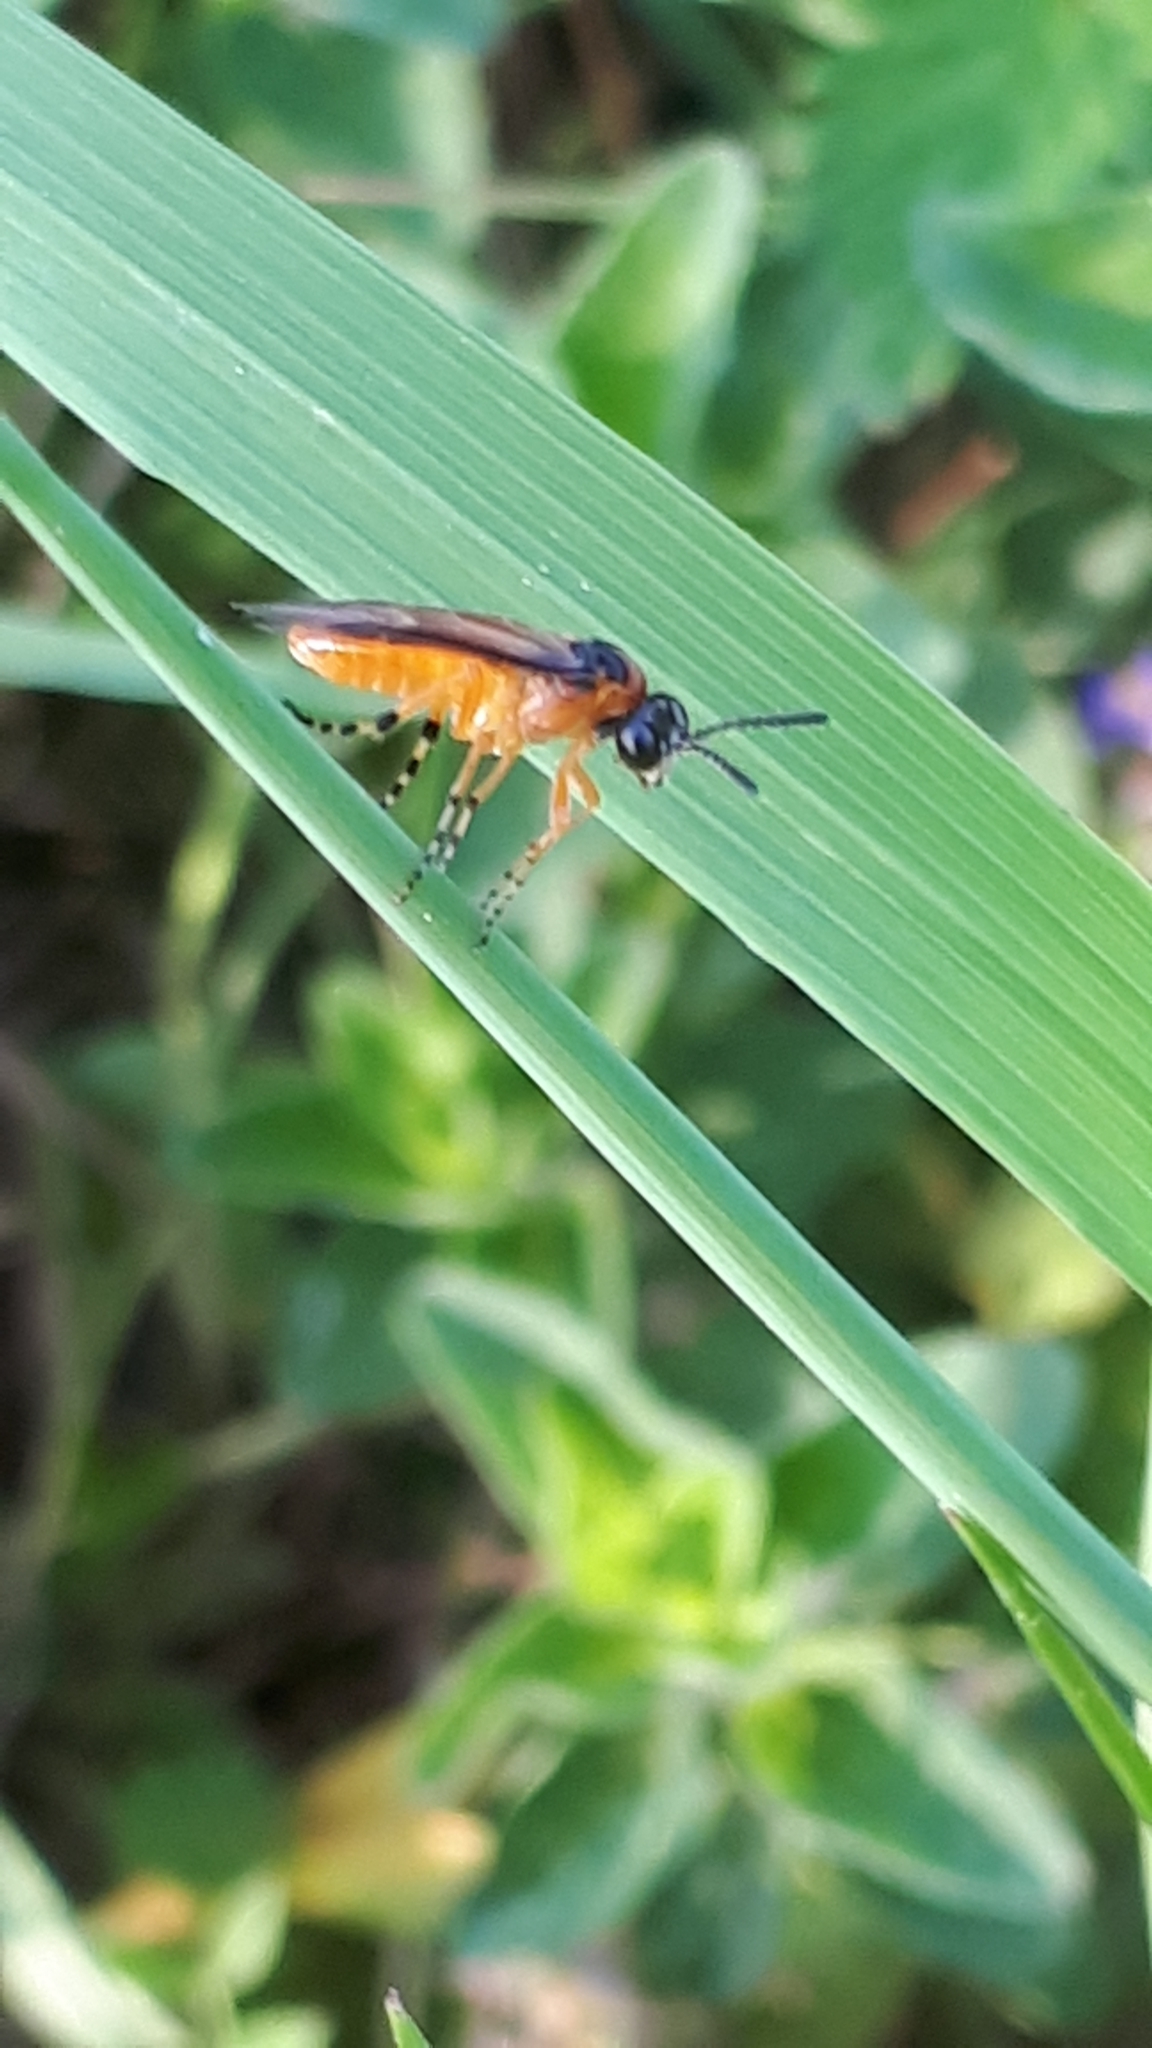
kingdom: Animalia
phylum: Arthropoda
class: Insecta
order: Hymenoptera
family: Tenthredinidae
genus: Athalia
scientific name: Athalia rosae
